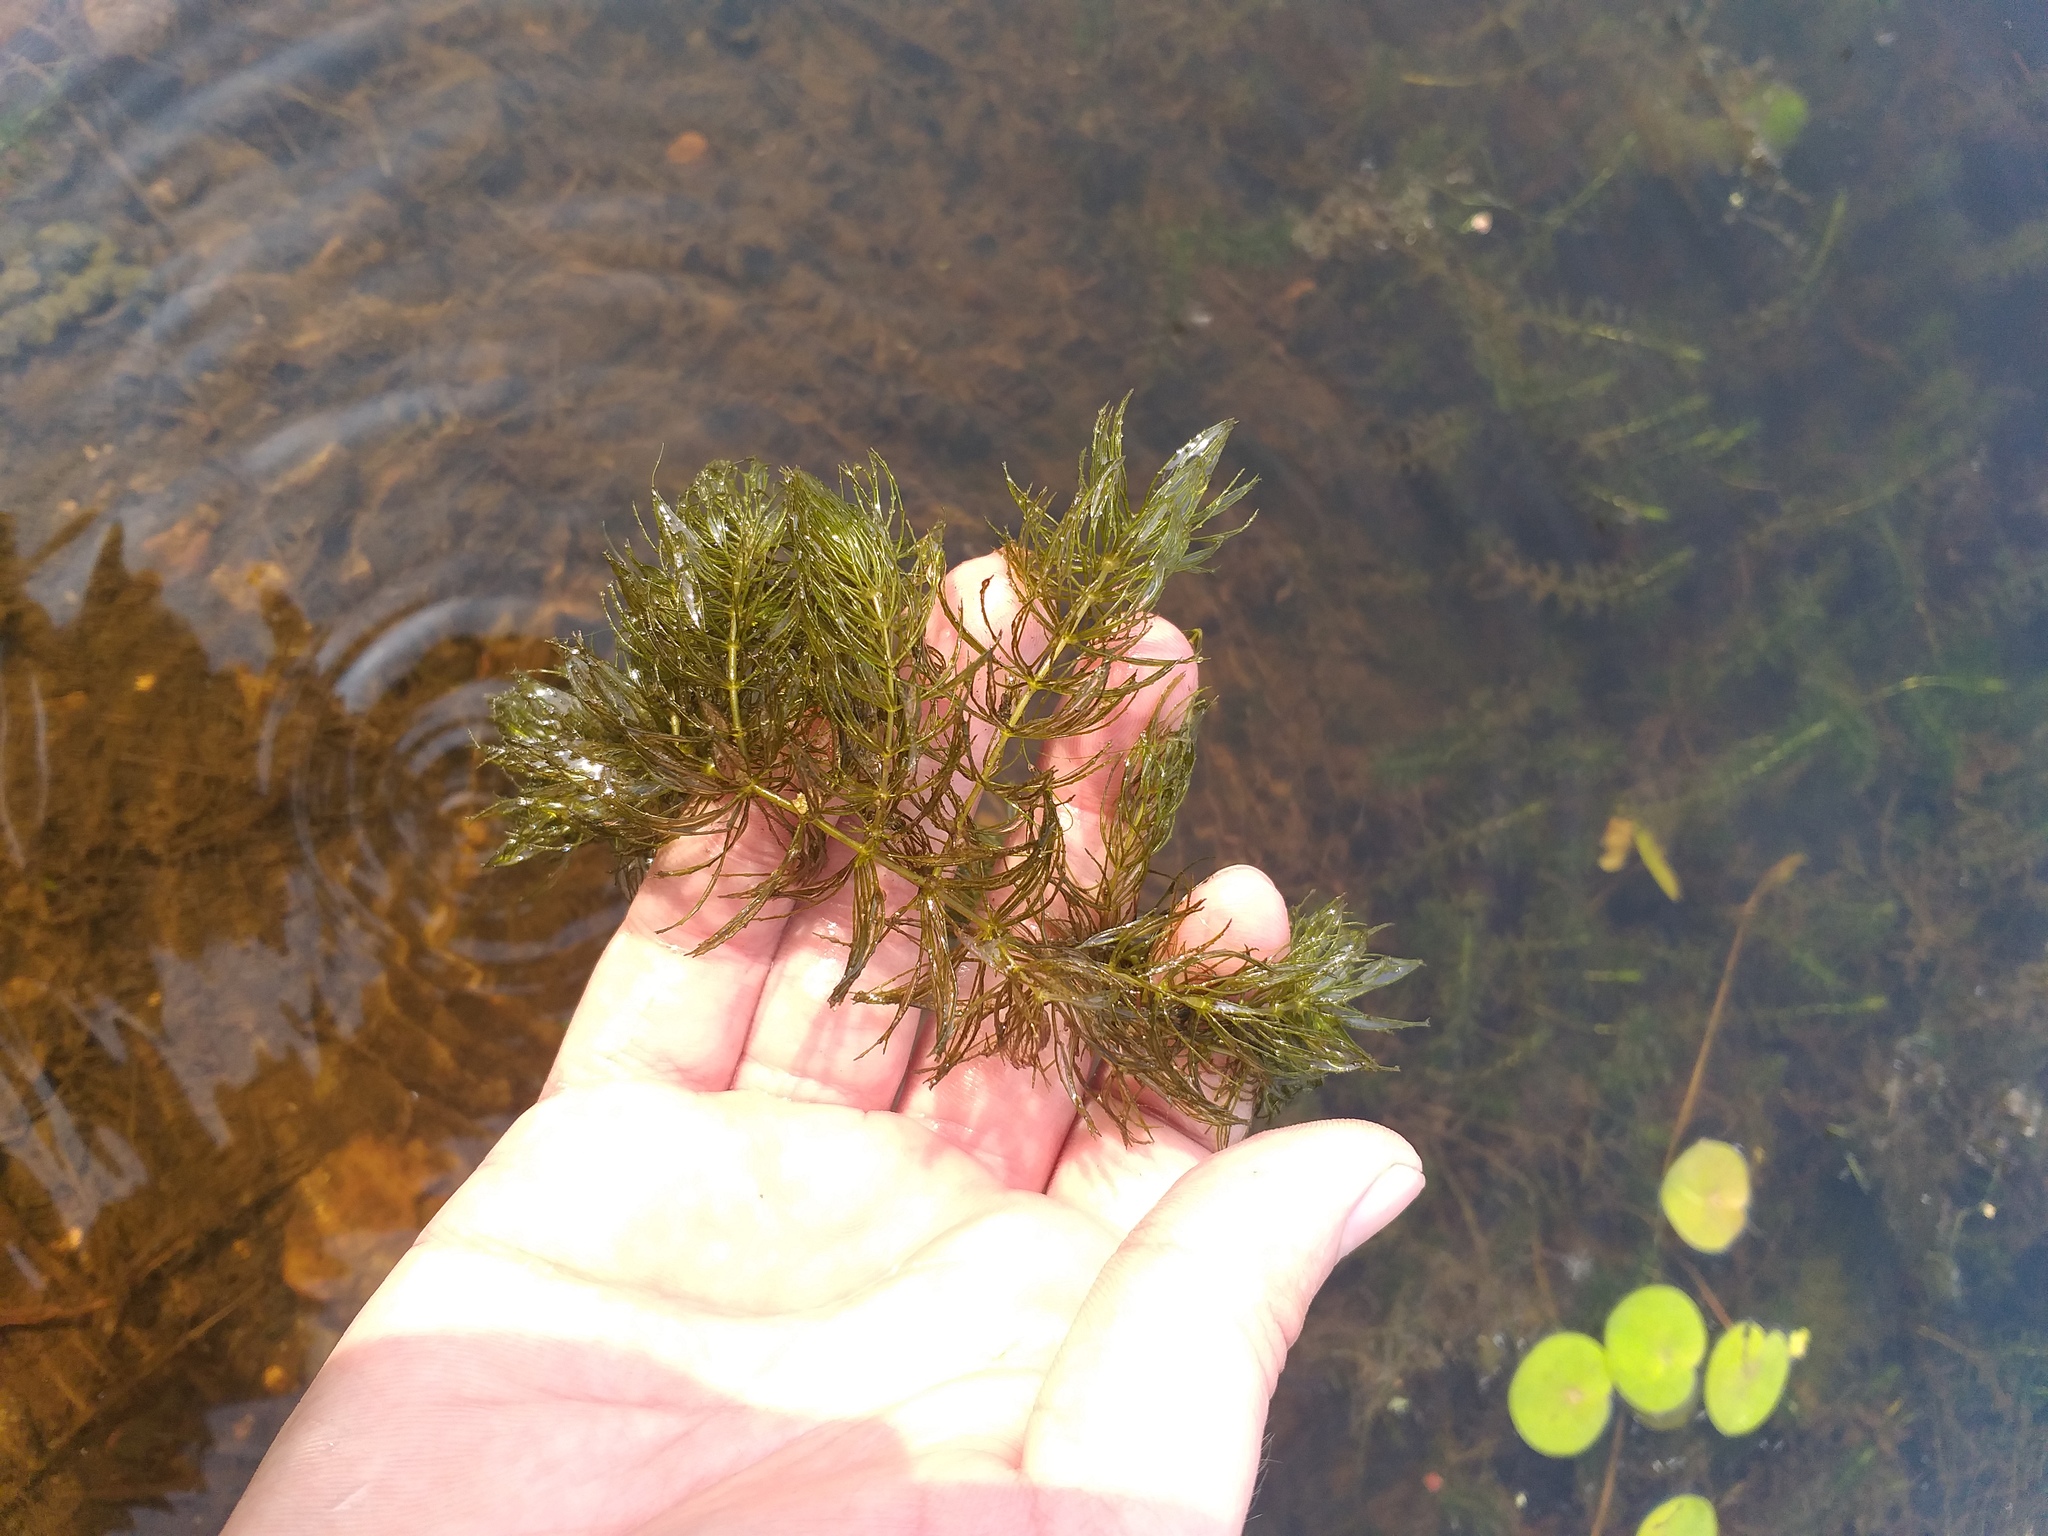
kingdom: Plantae
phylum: Tracheophyta
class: Magnoliopsida
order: Ceratophyllales
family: Ceratophyllaceae
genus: Ceratophyllum
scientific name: Ceratophyllum demersum
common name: Rigid hornwort
